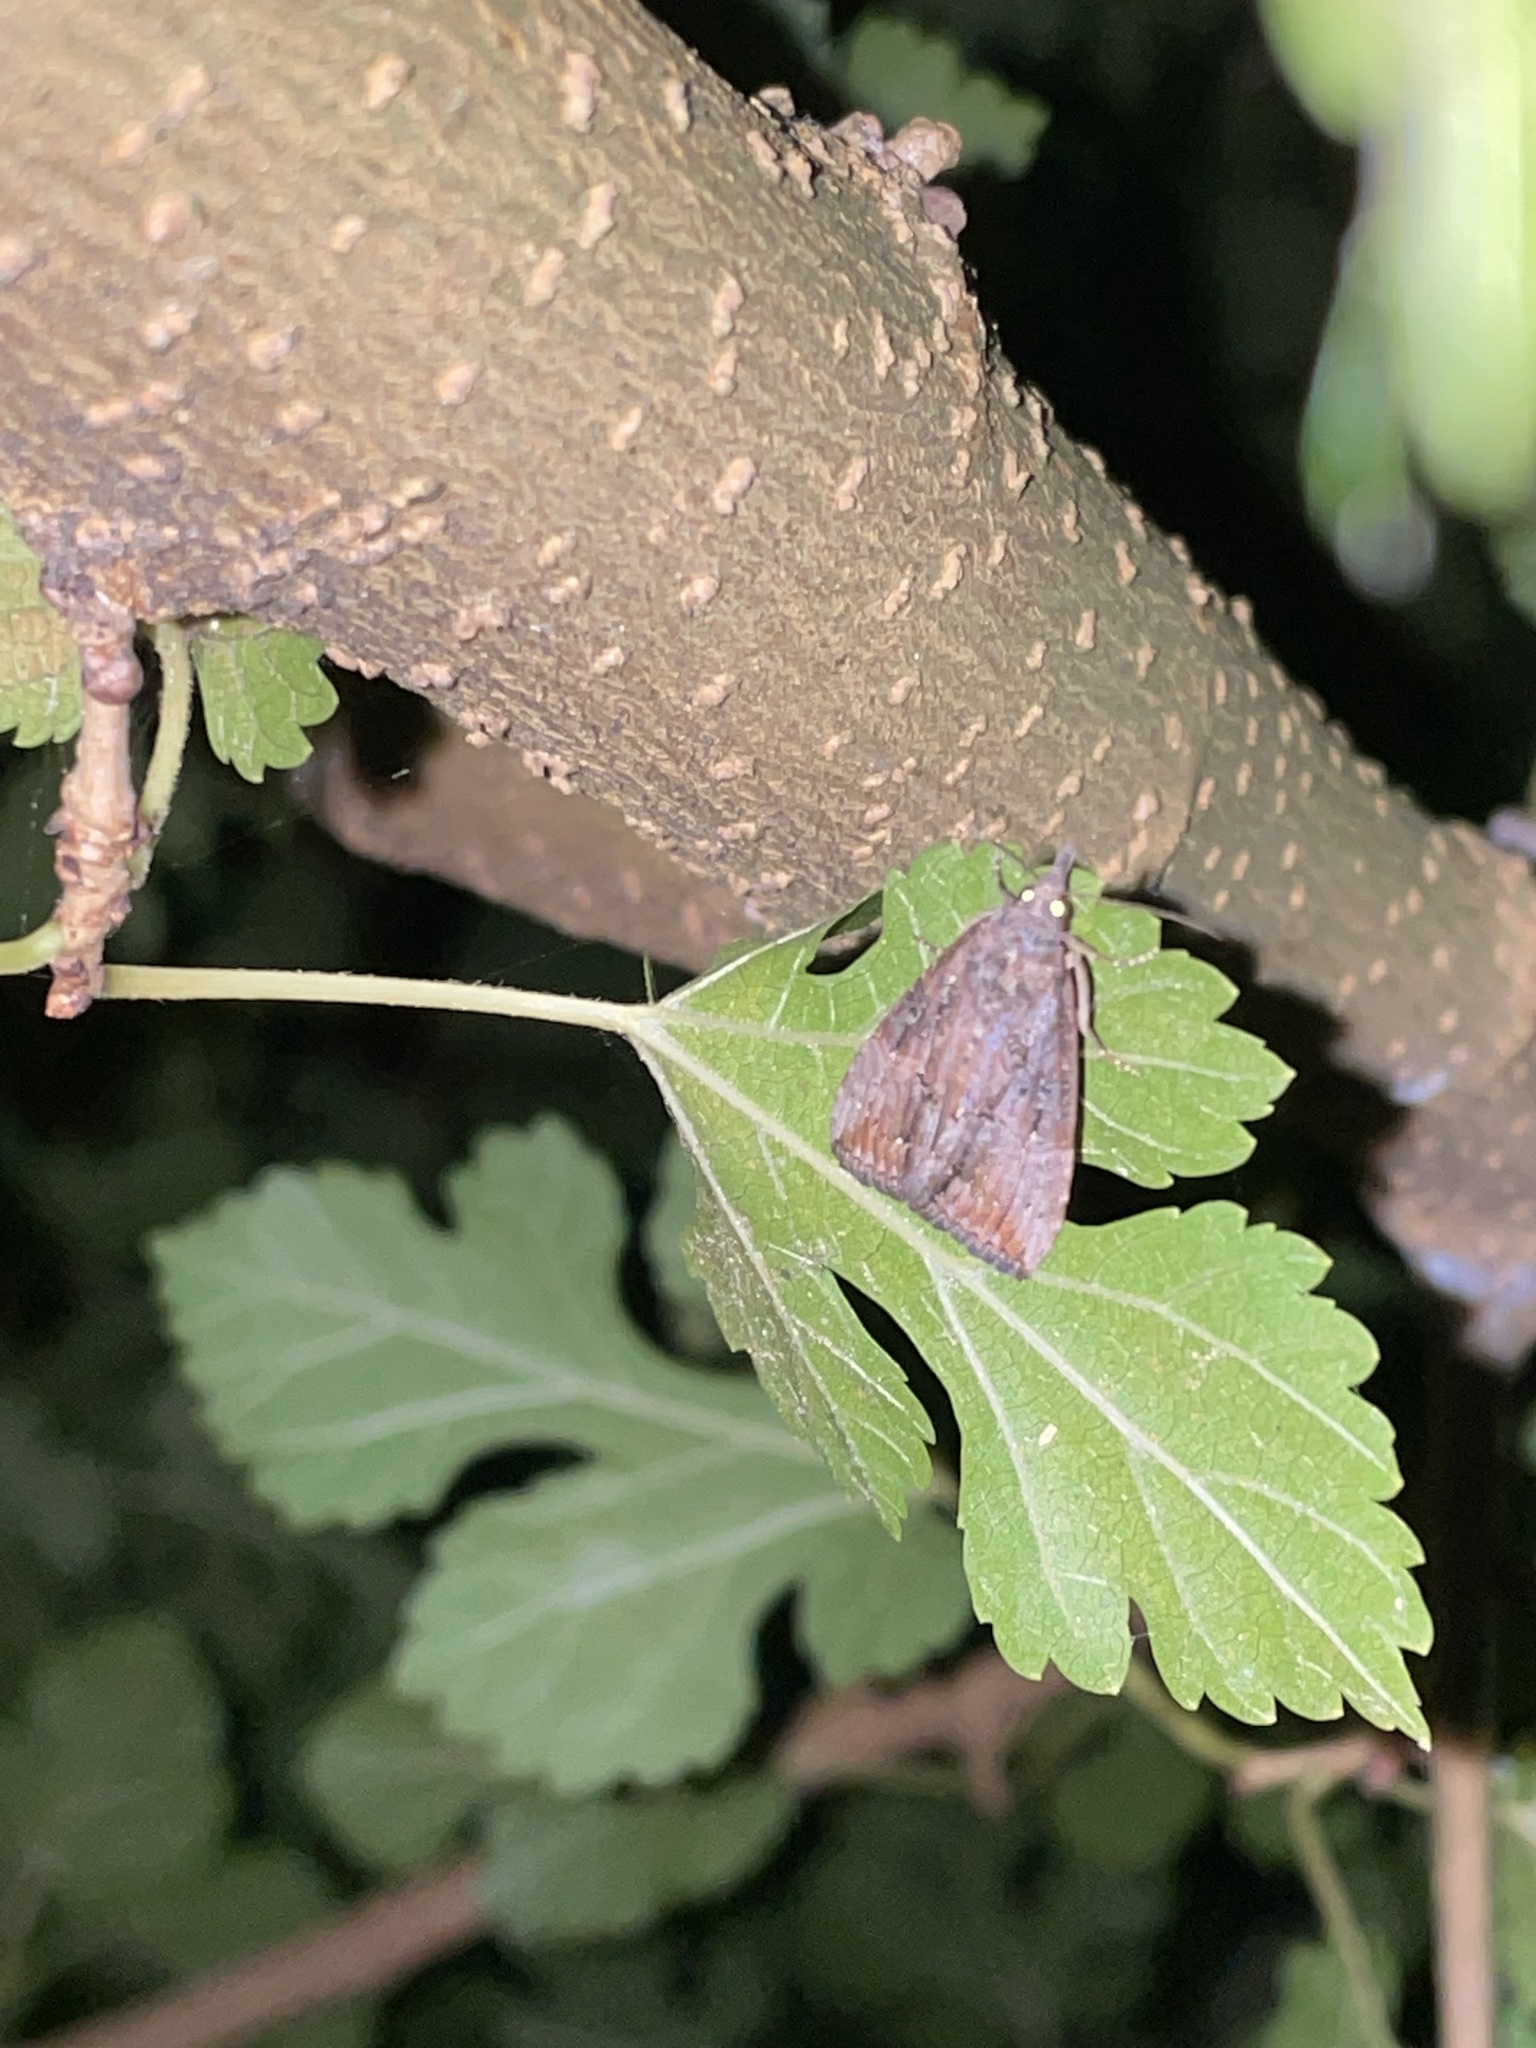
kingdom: Animalia
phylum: Arthropoda
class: Insecta
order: Lepidoptera
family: Erebidae
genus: Hypena
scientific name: Hypena scabra
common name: Green cloverworm
